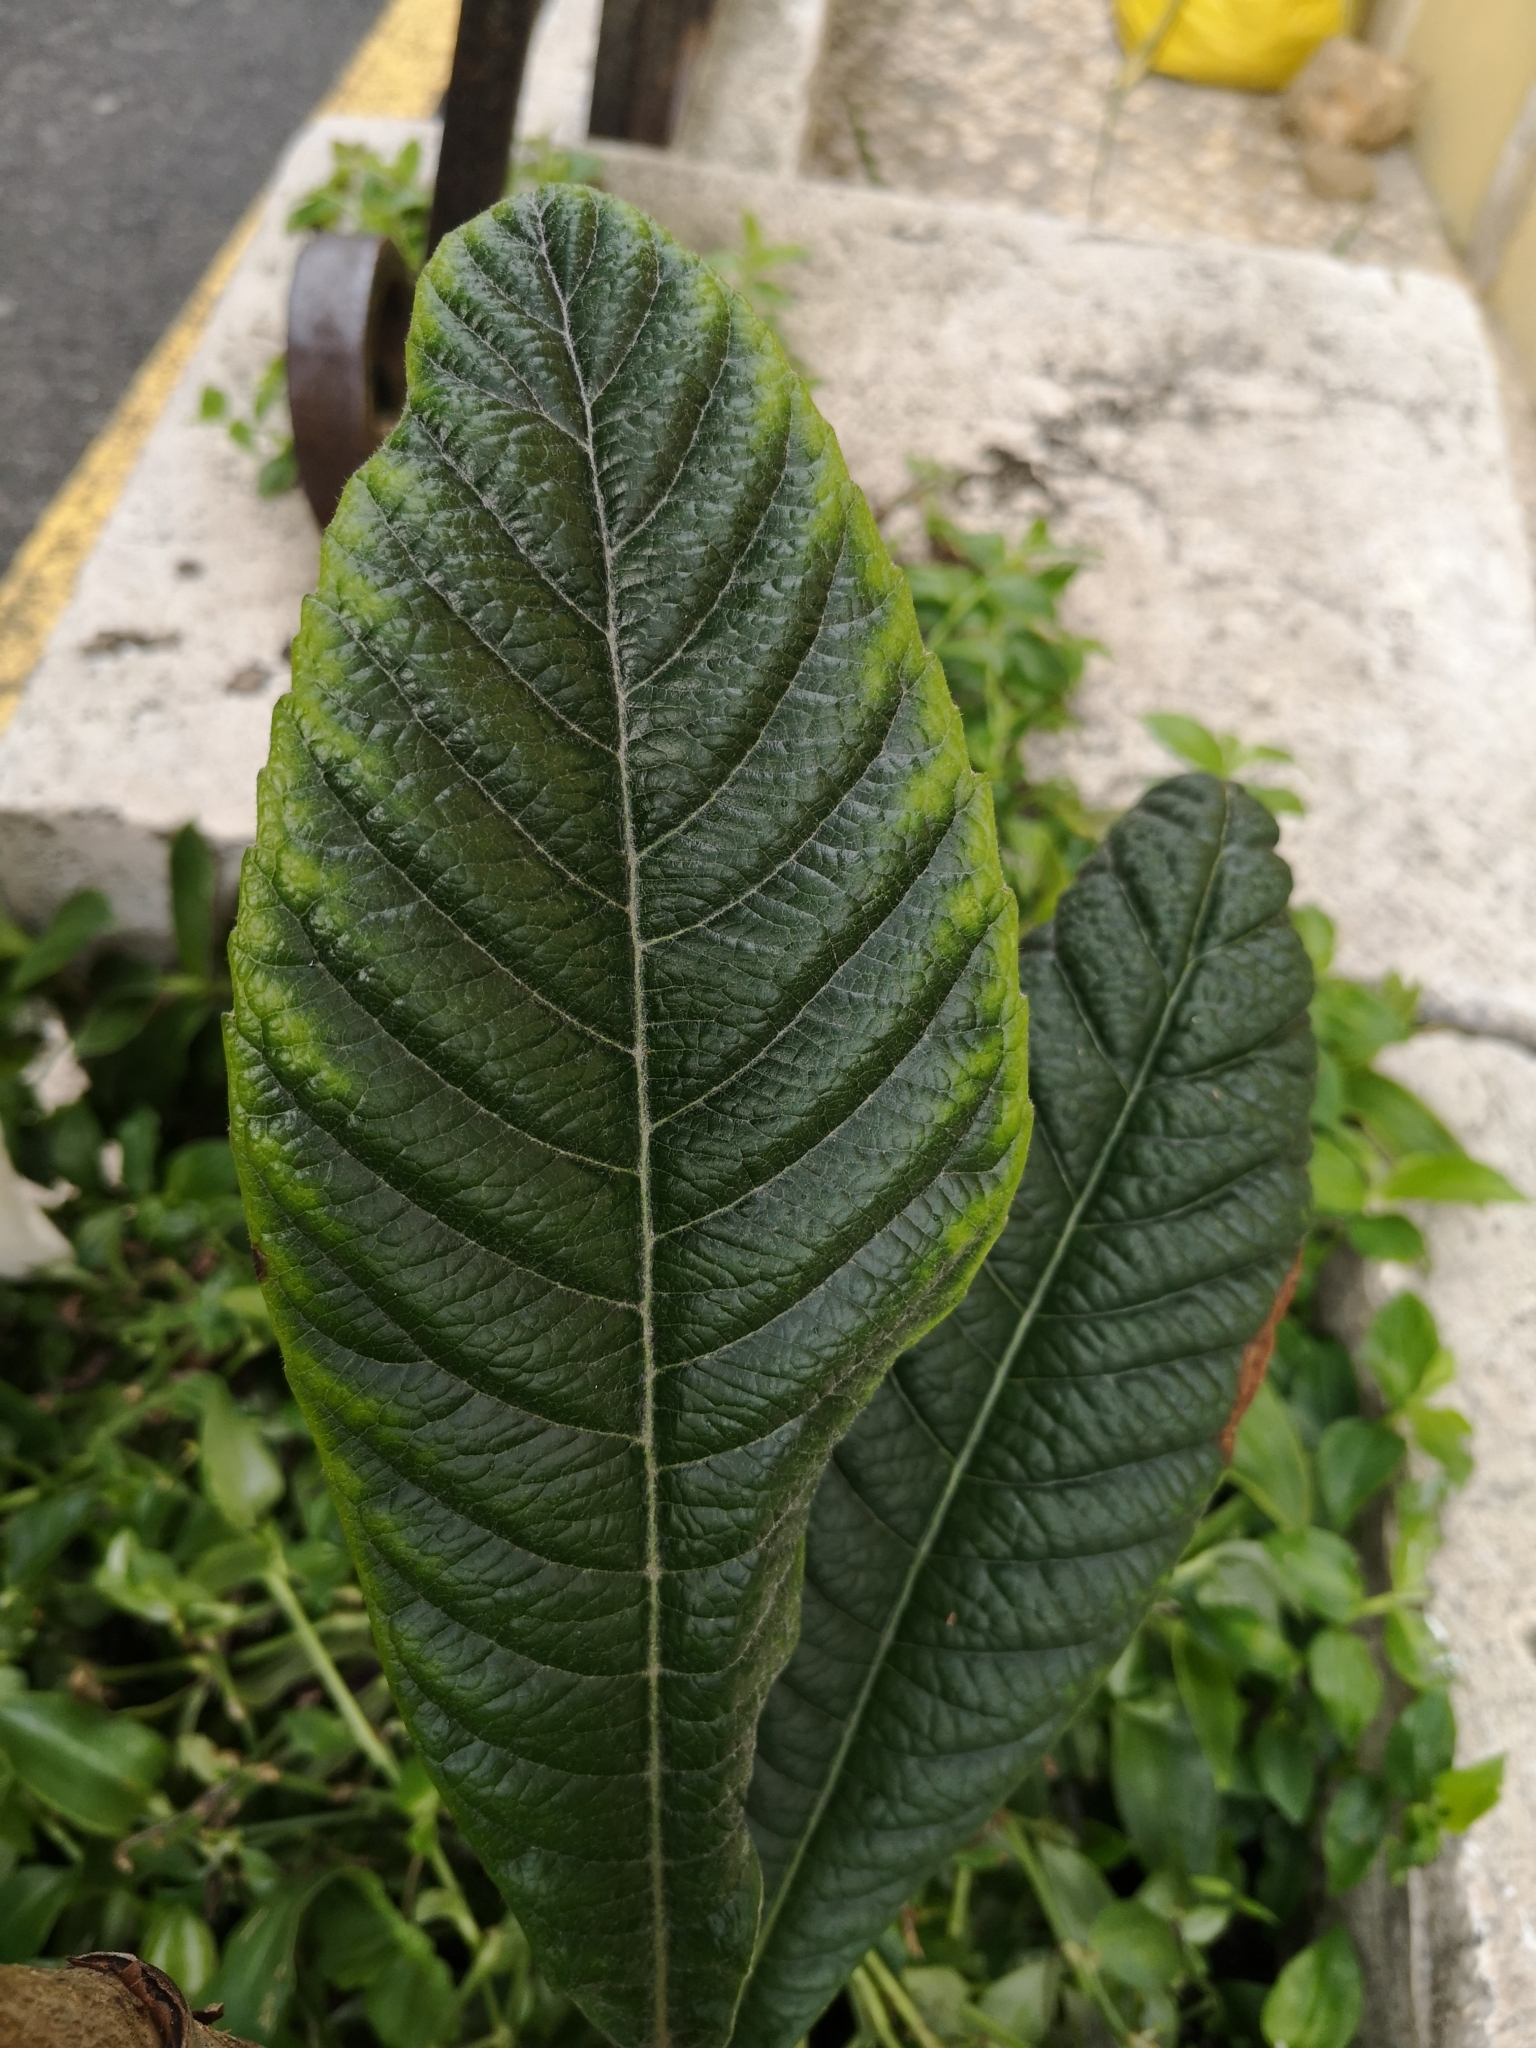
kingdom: Plantae
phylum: Tracheophyta
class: Magnoliopsida
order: Rosales
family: Rosaceae
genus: Rhaphiolepis
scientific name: Rhaphiolepis bibas
